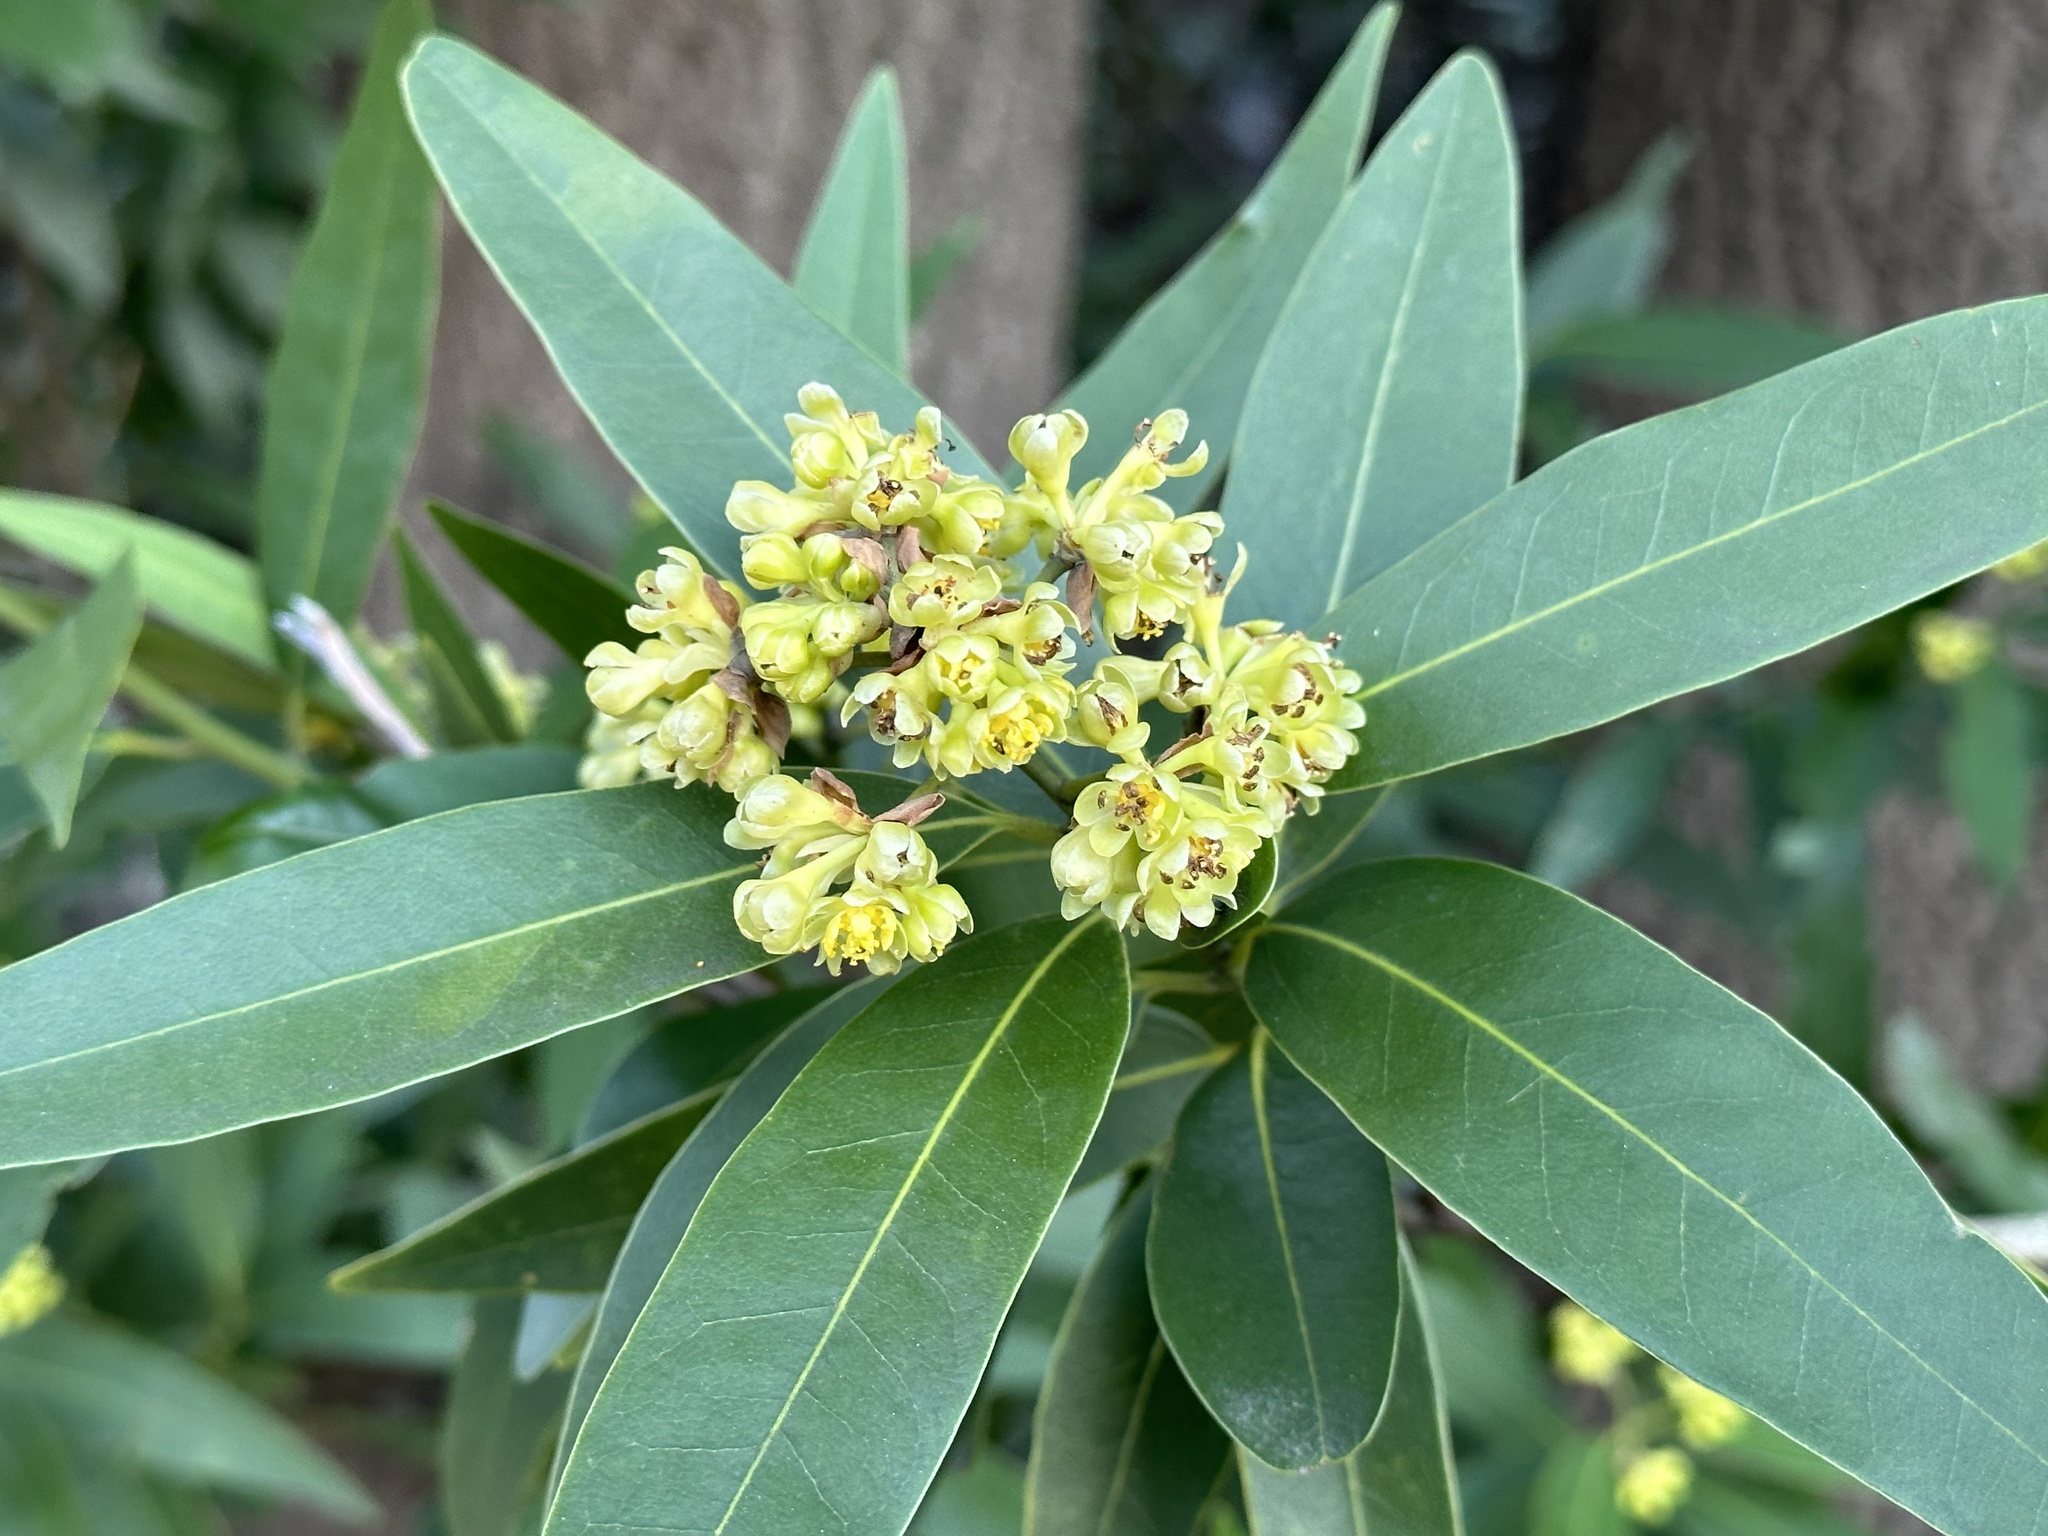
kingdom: Plantae
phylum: Tracheophyta
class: Magnoliopsida
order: Laurales
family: Lauraceae
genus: Umbellularia
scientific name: Umbellularia californica
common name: California bay
